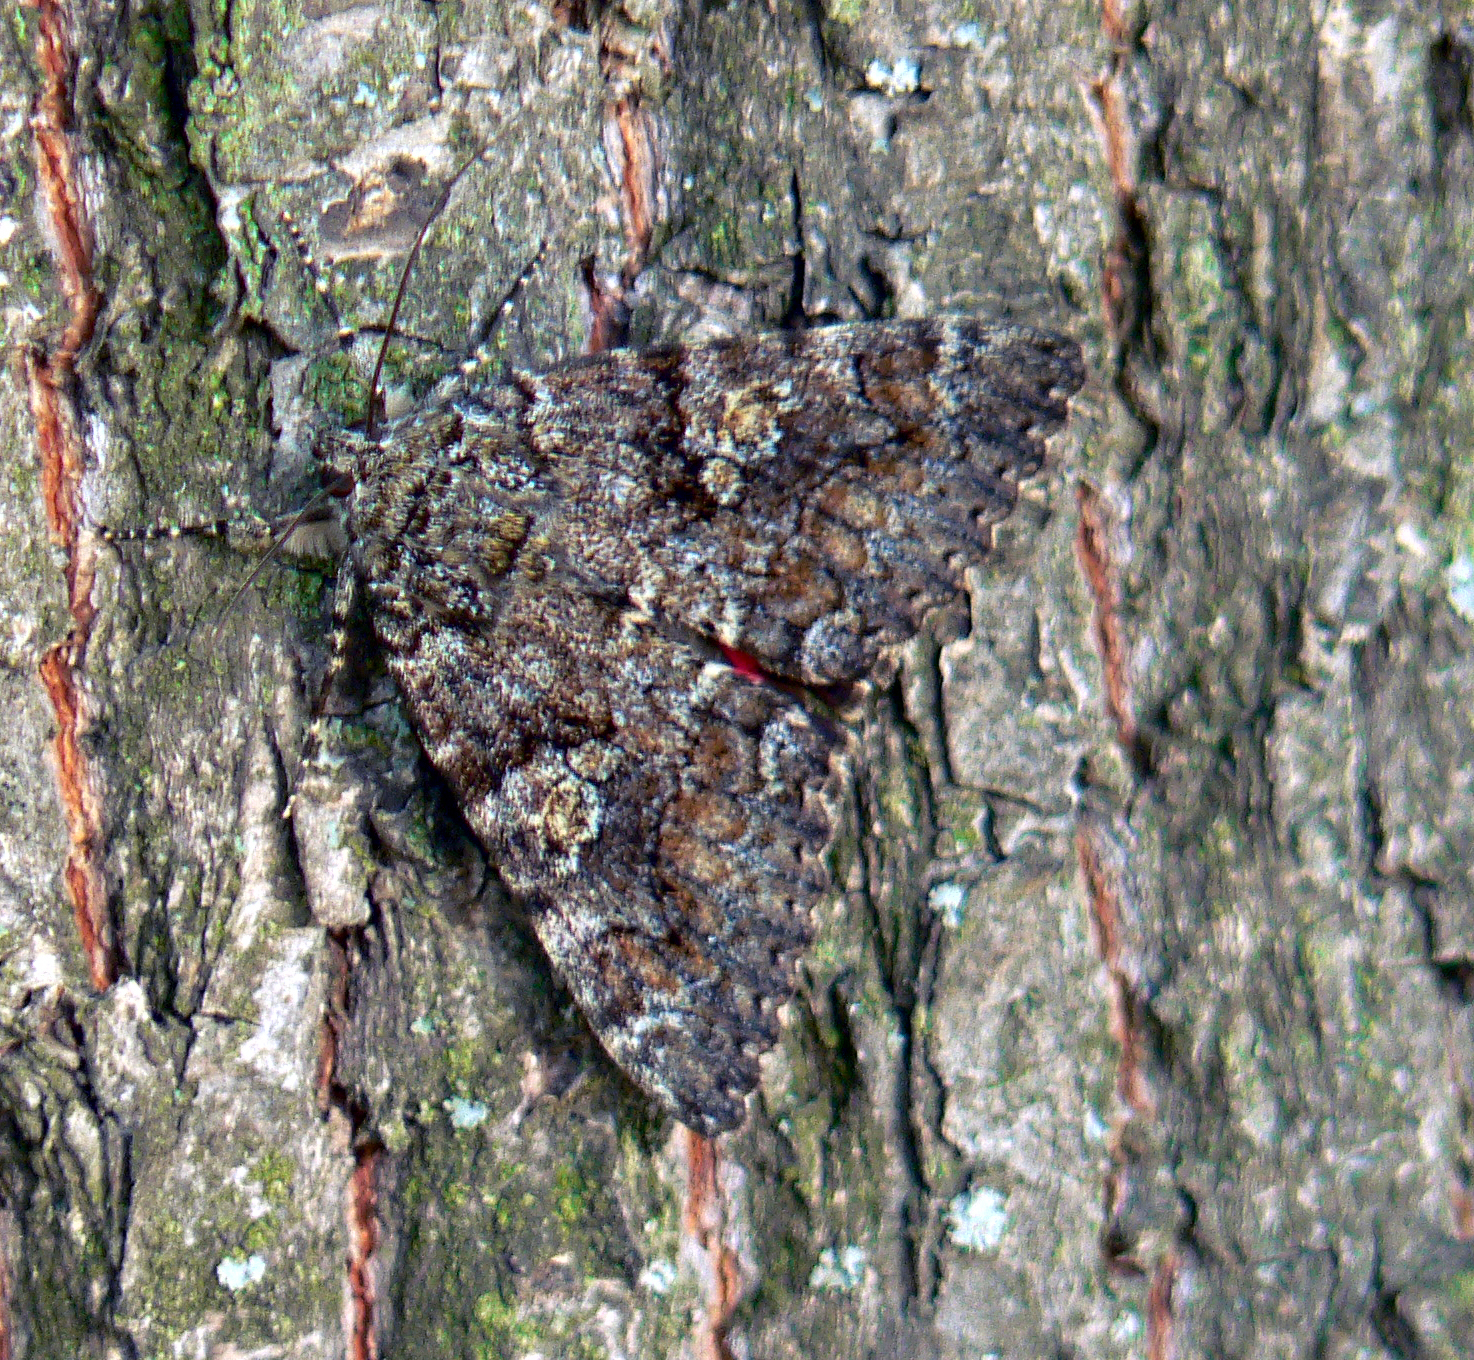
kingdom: Animalia
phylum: Arthropoda
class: Insecta
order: Lepidoptera
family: Erebidae
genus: Catocala
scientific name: Catocala sponsa
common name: Dark crimson underwing
